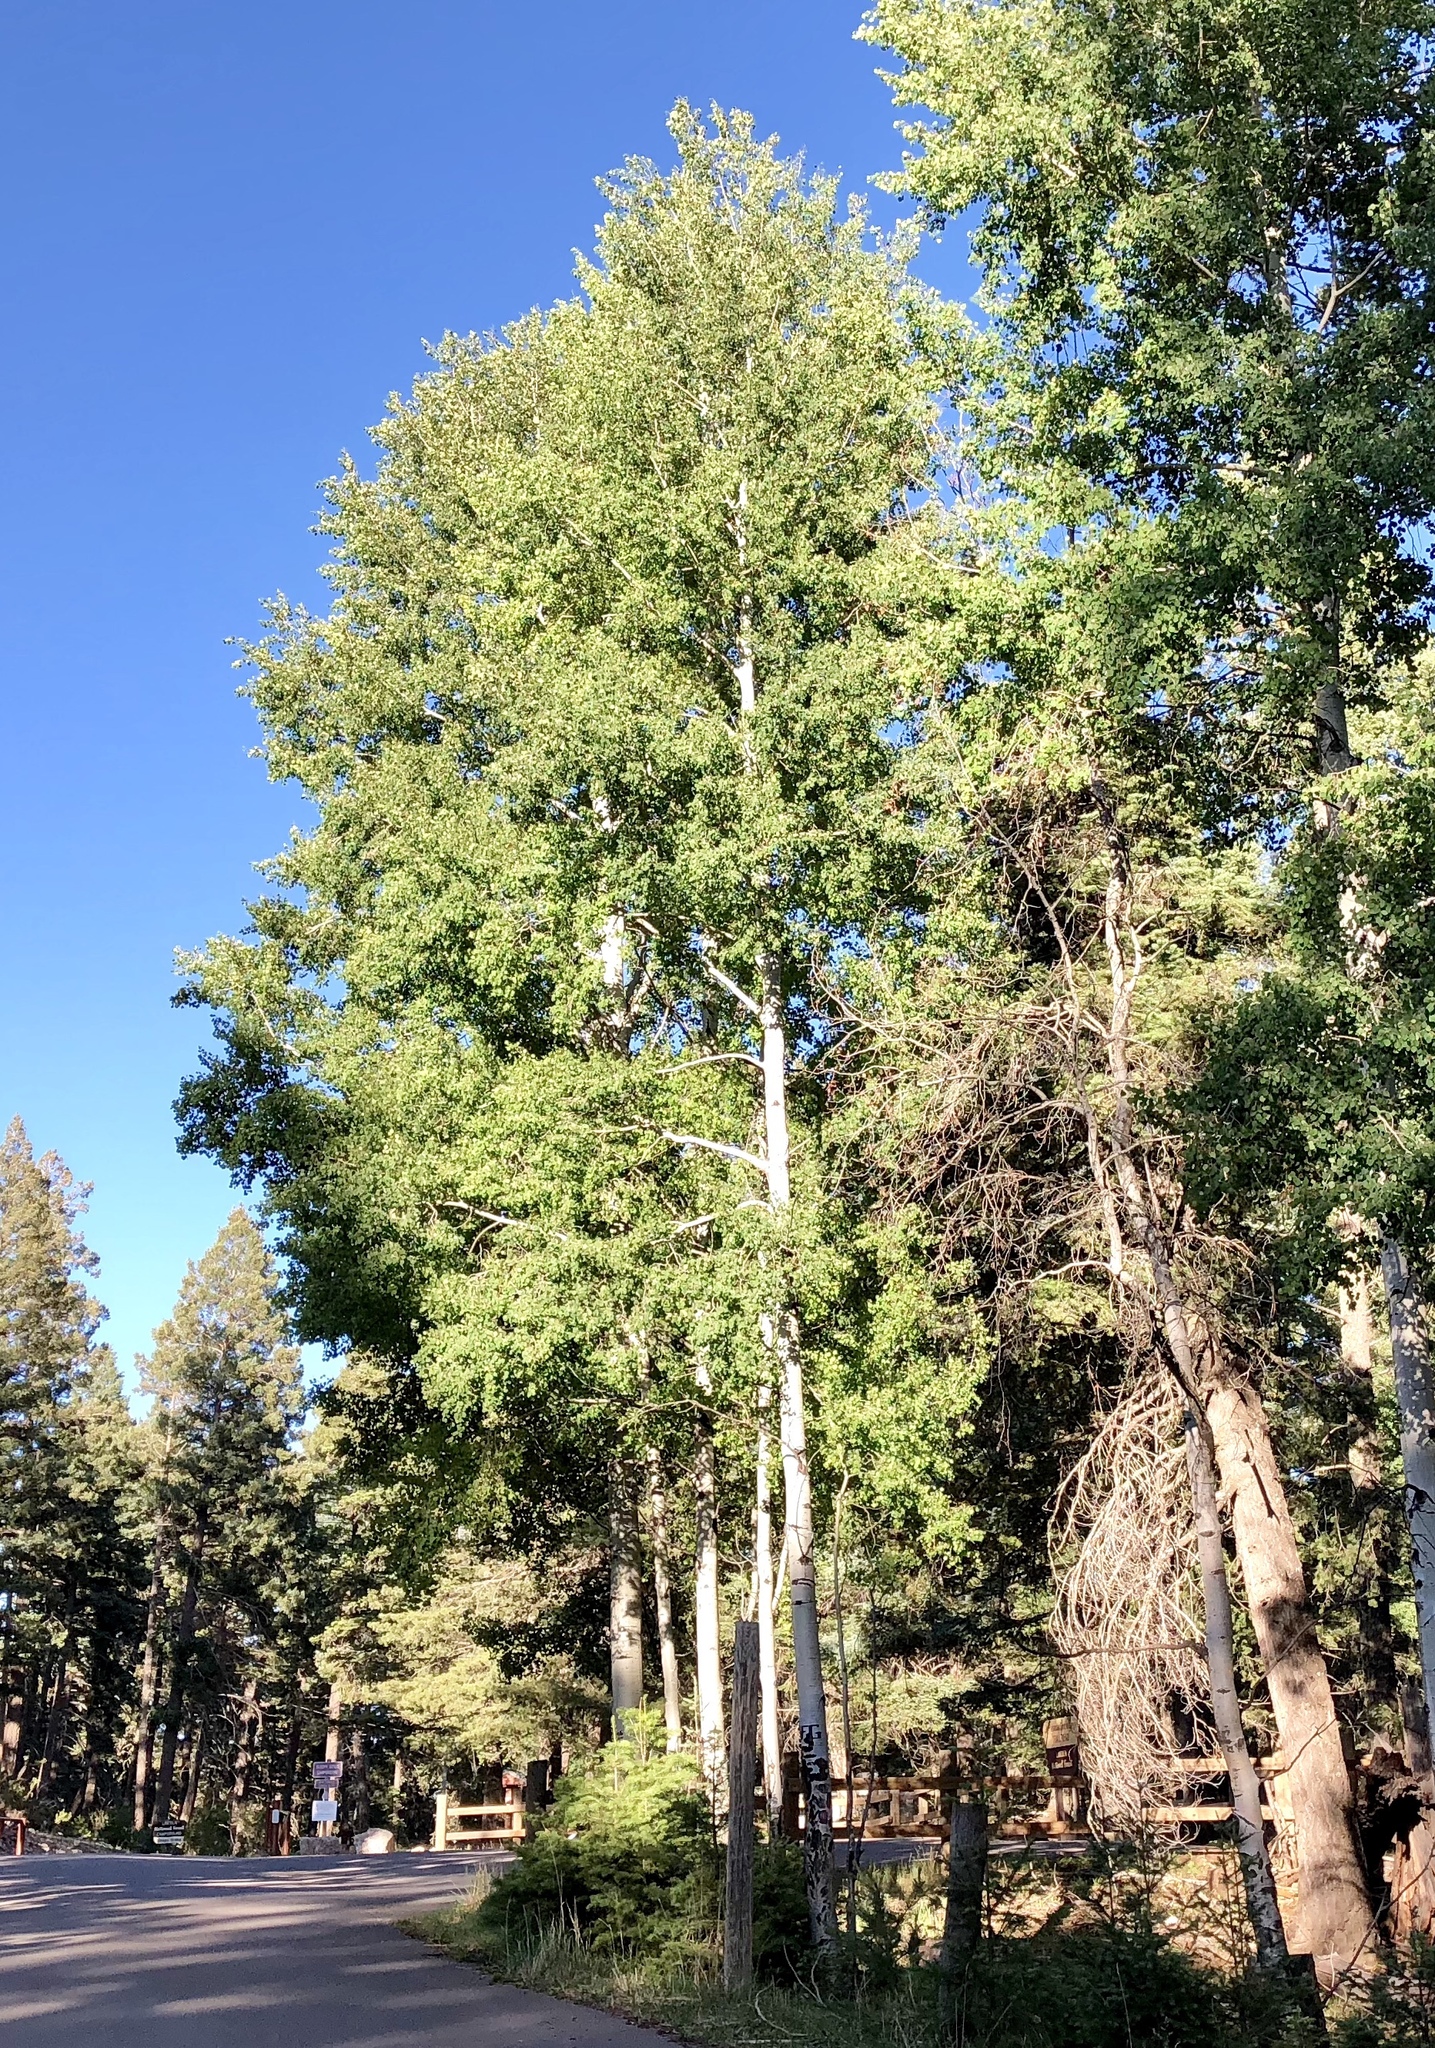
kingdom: Plantae
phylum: Tracheophyta
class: Magnoliopsida
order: Malpighiales
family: Salicaceae
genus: Populus
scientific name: Populus tremuloides
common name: Quaking aspen
